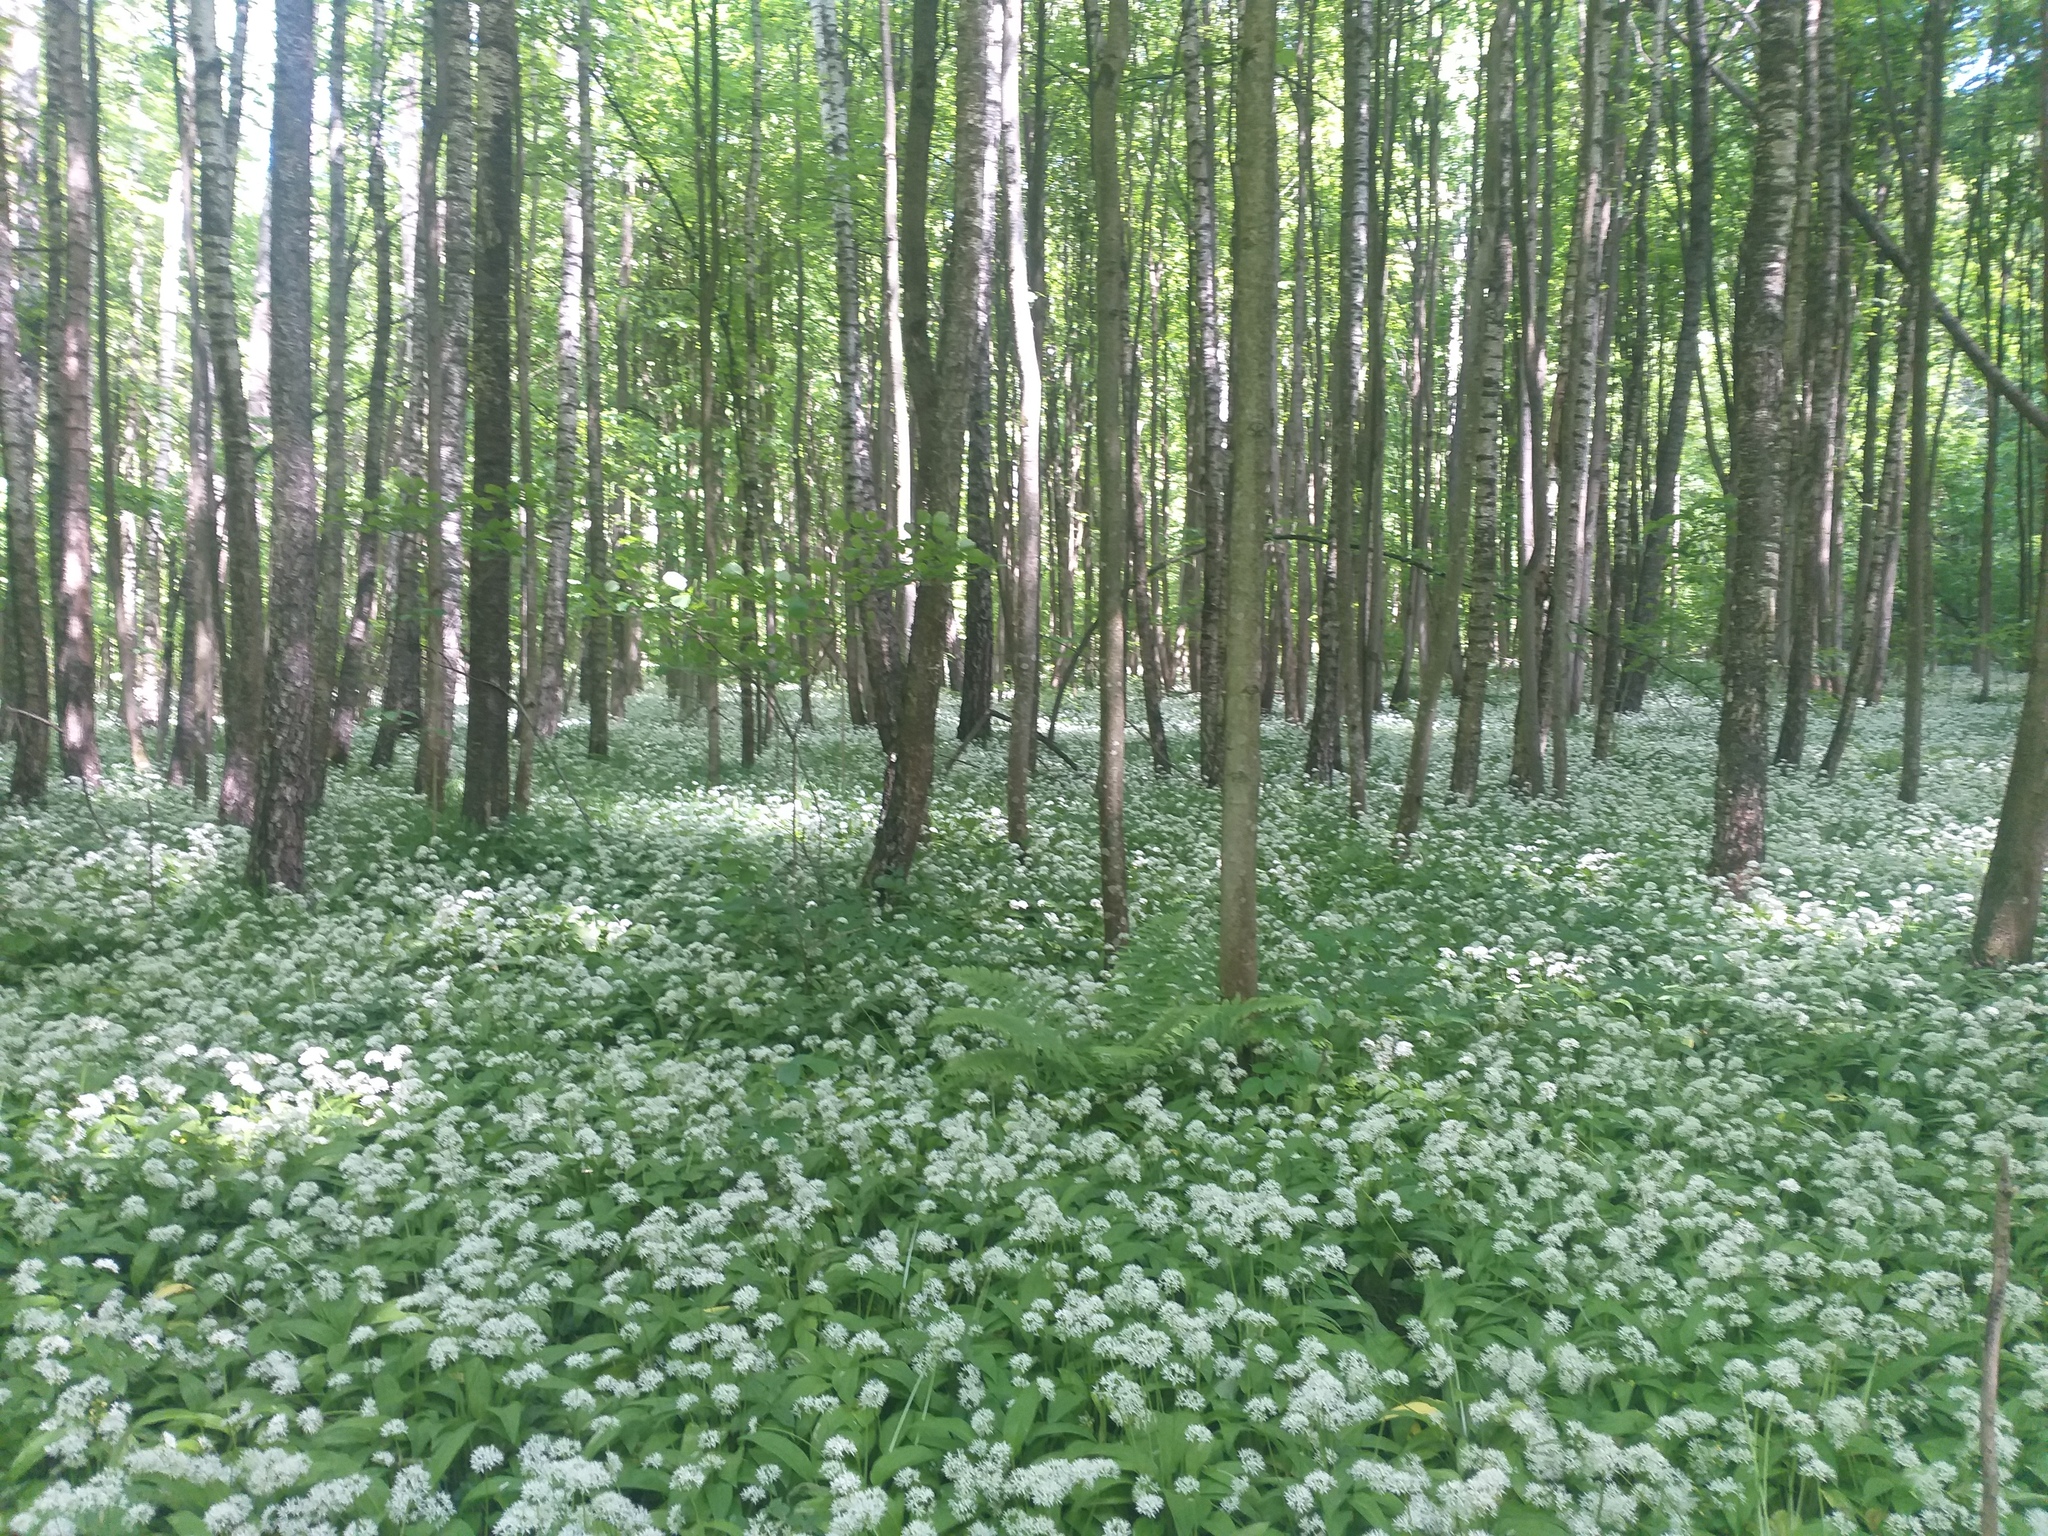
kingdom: Plantae
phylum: Tracheophyta
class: Liliopsida
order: Asparagales
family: Amaryllidaceae
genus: Allium
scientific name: Allium ursinum
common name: Ramsons
